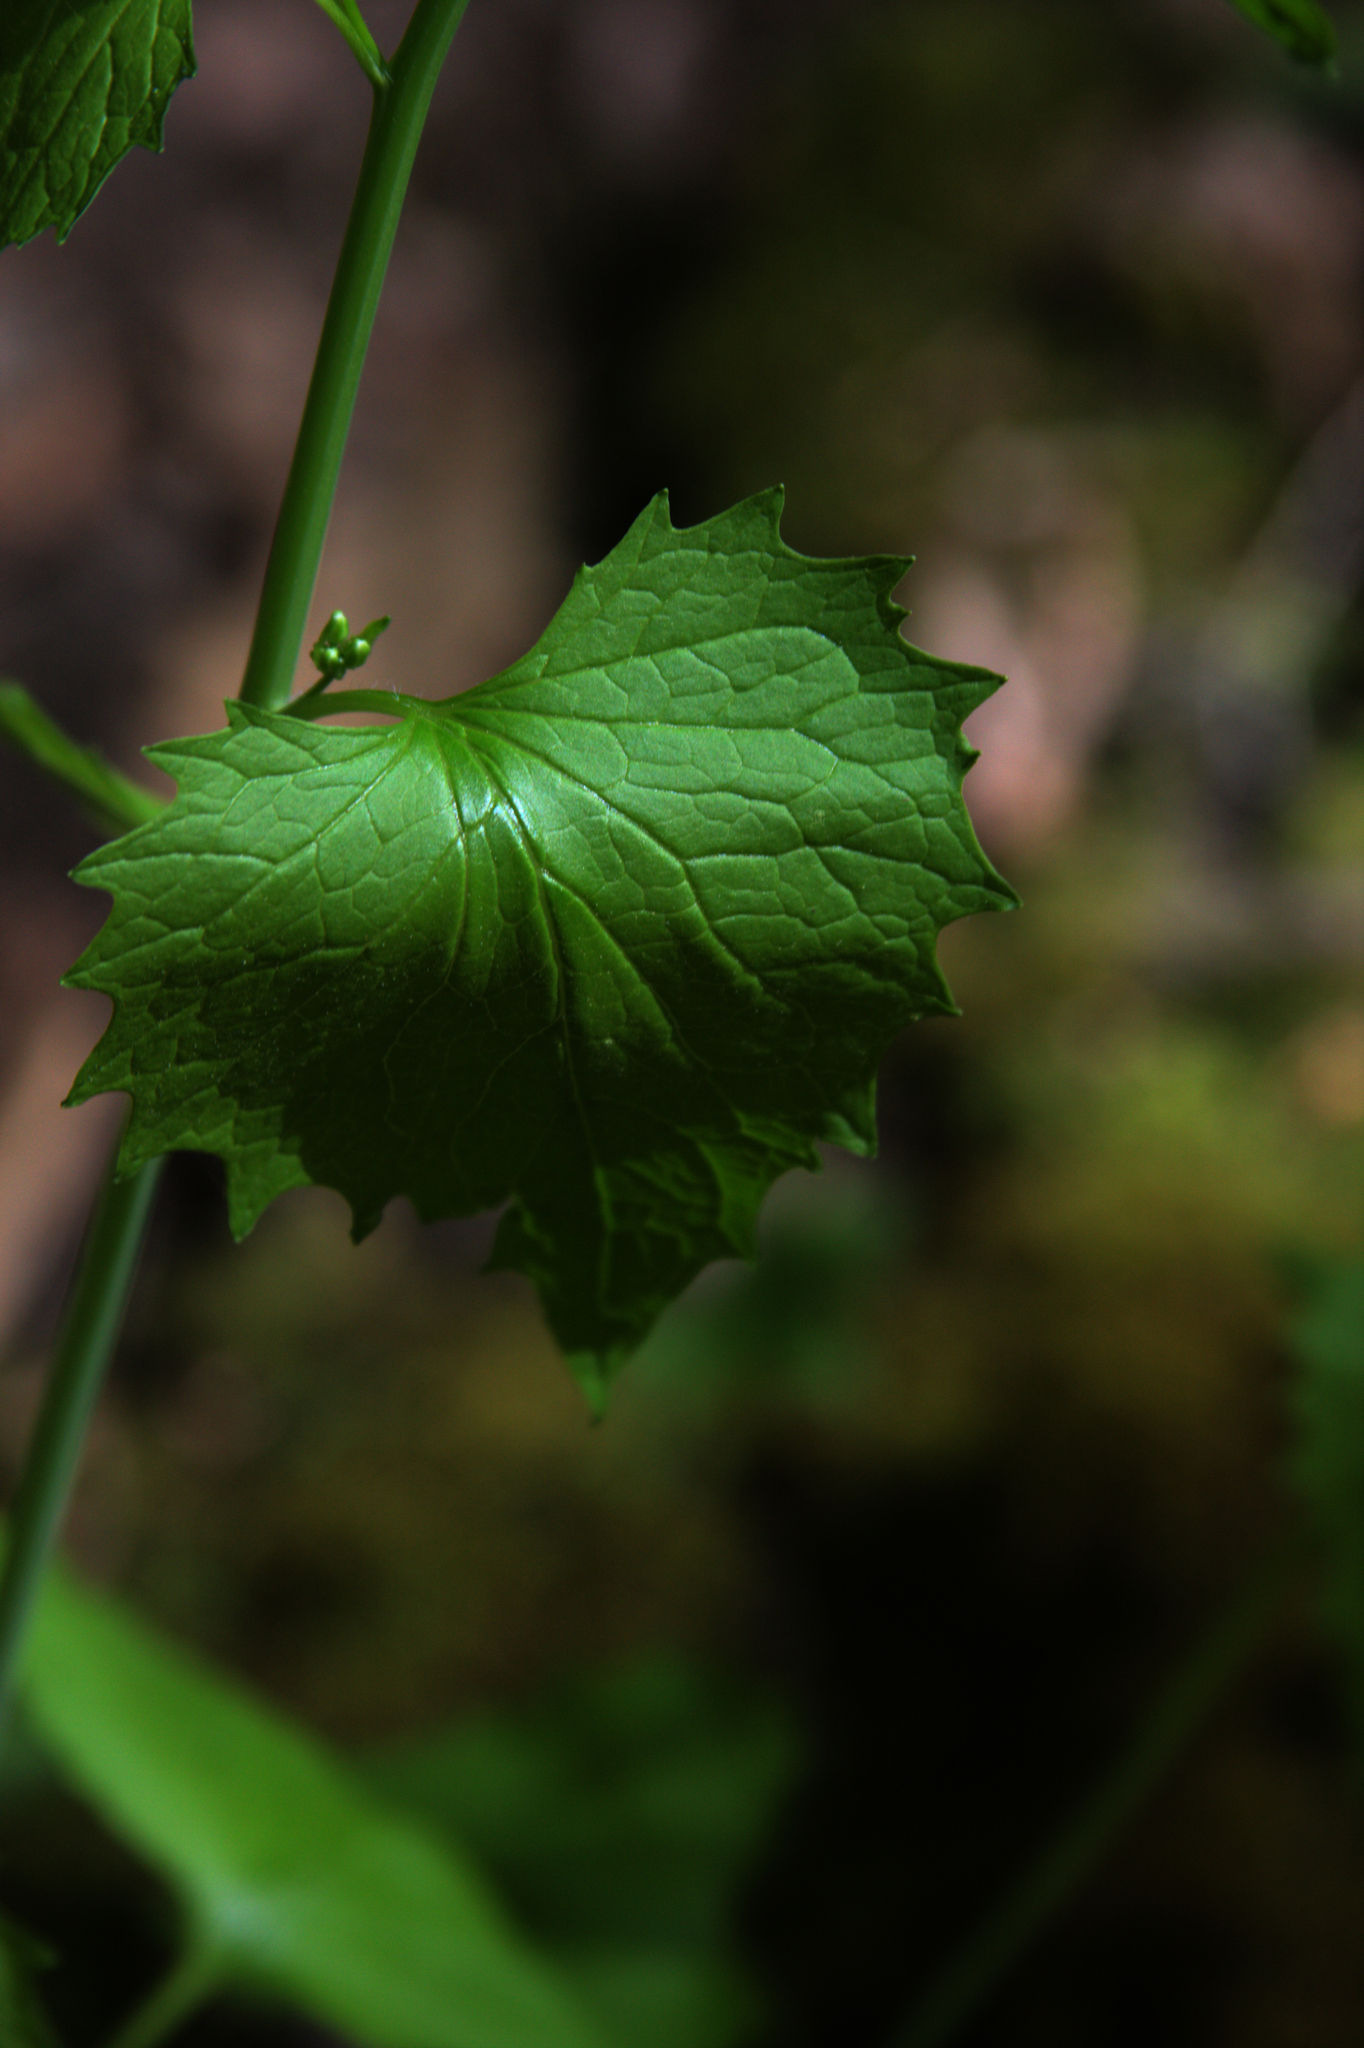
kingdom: Plantae
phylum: Tracheophyta
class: Magnoliopsida
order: Brassicales
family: Brassicaceae
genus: Alliaria
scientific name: Alliaria petiolata
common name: Garlic mustard
